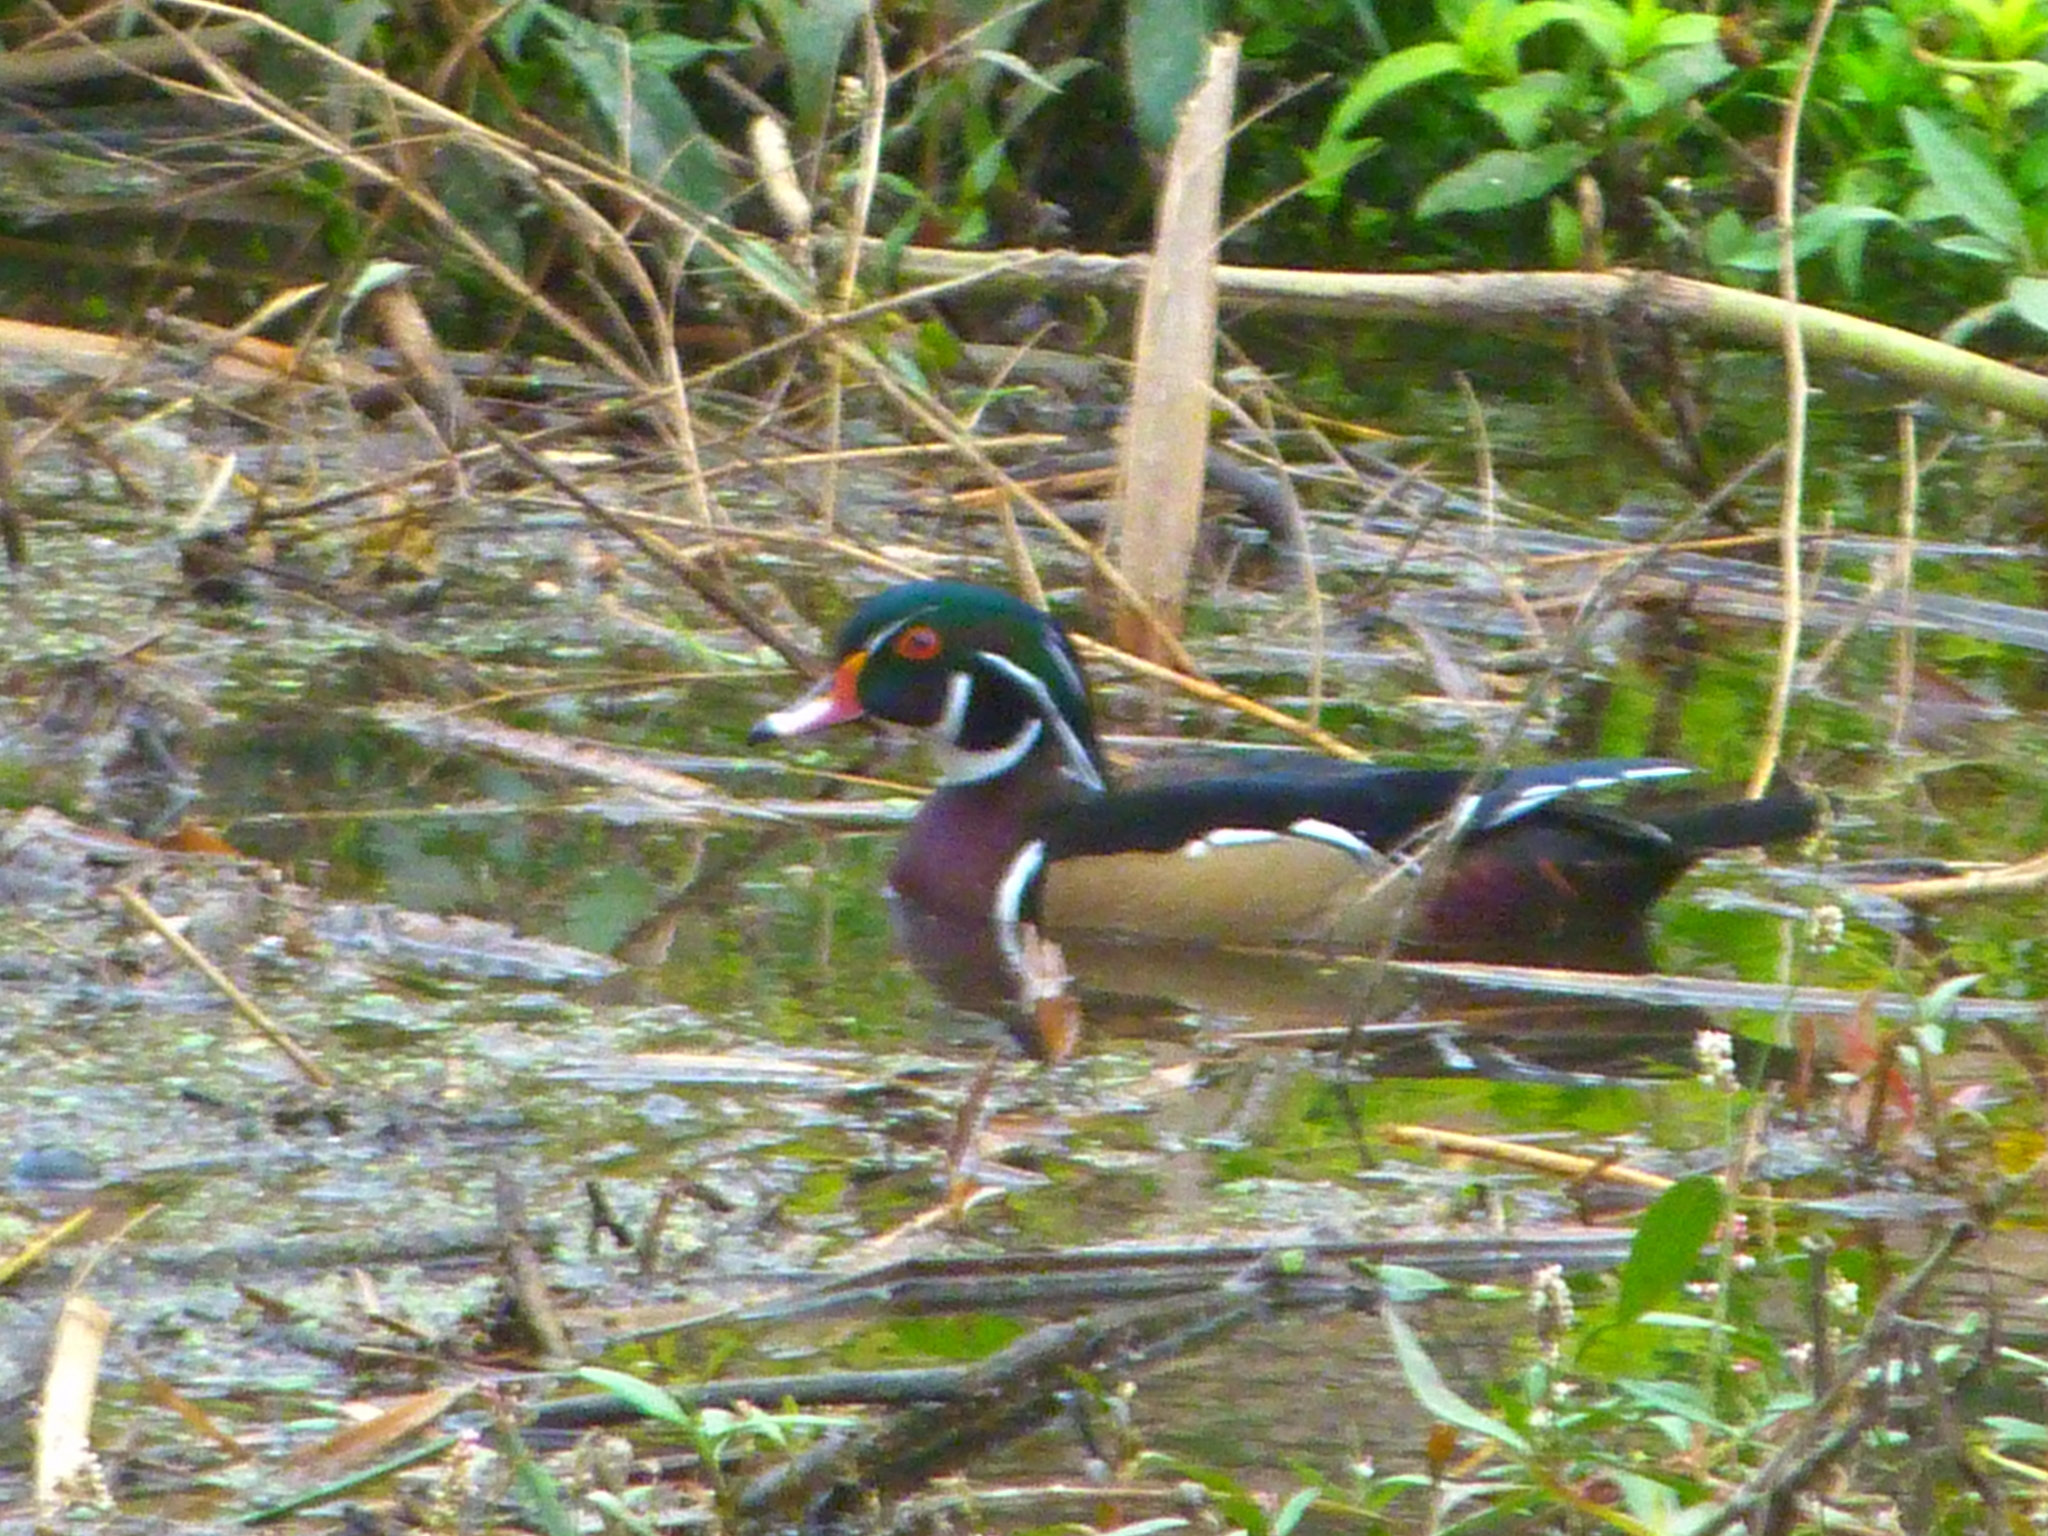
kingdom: Animalia
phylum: Chordata
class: Aves
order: Anseriformes
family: Anatidae
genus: Aix
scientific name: Aix sponsa
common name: Wood duck
